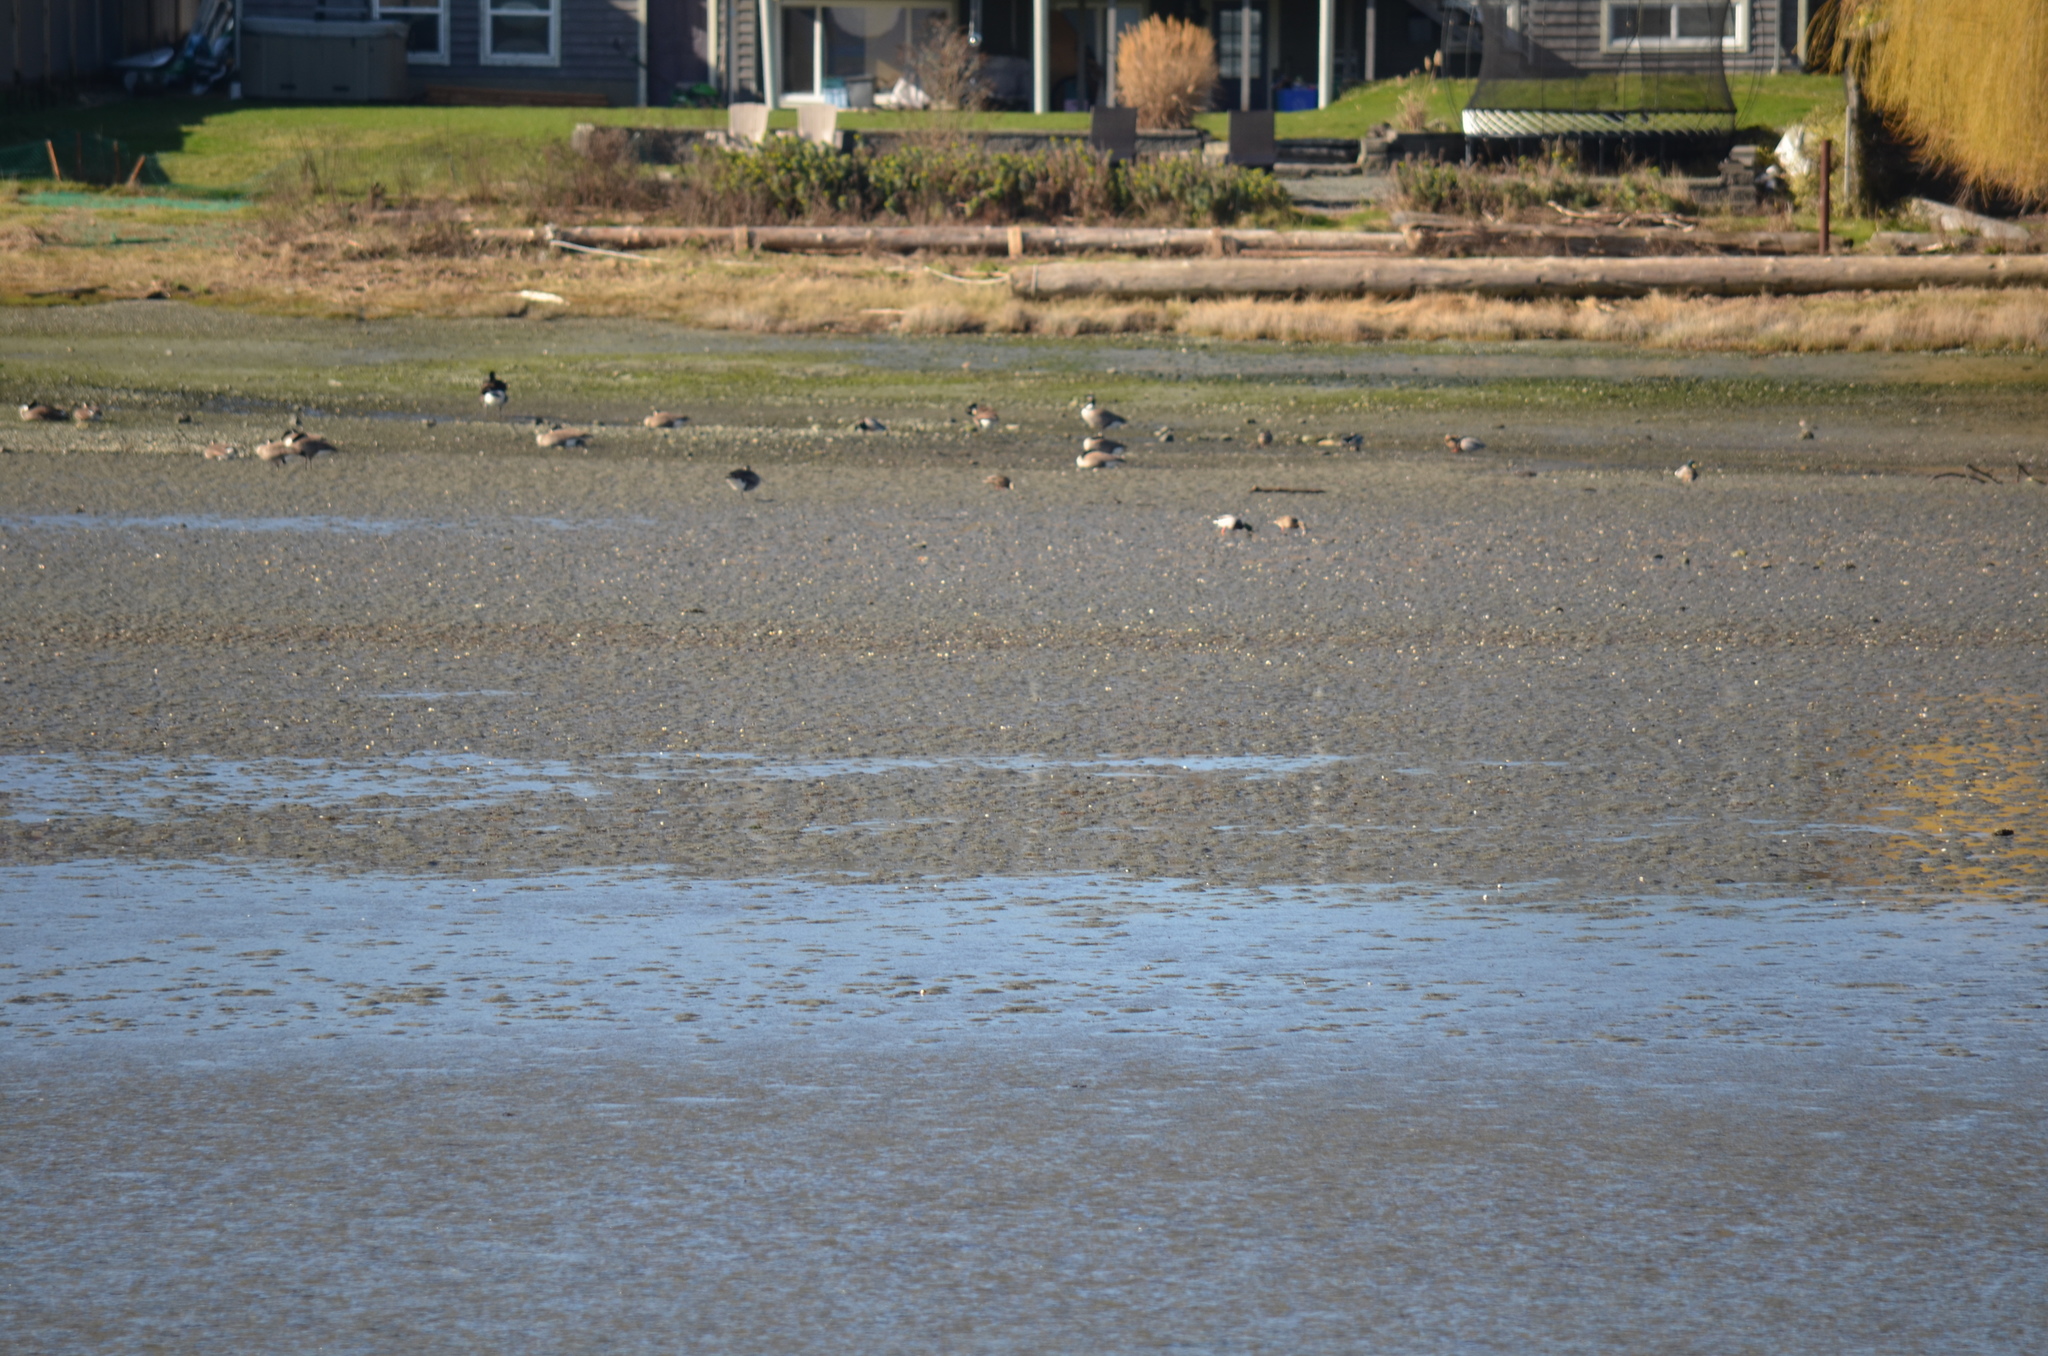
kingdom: Animalia
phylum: Chordata
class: Aves
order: Anseriformes
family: Anatidae
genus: Anas
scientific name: Anas platyrhynchos
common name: Mallard
